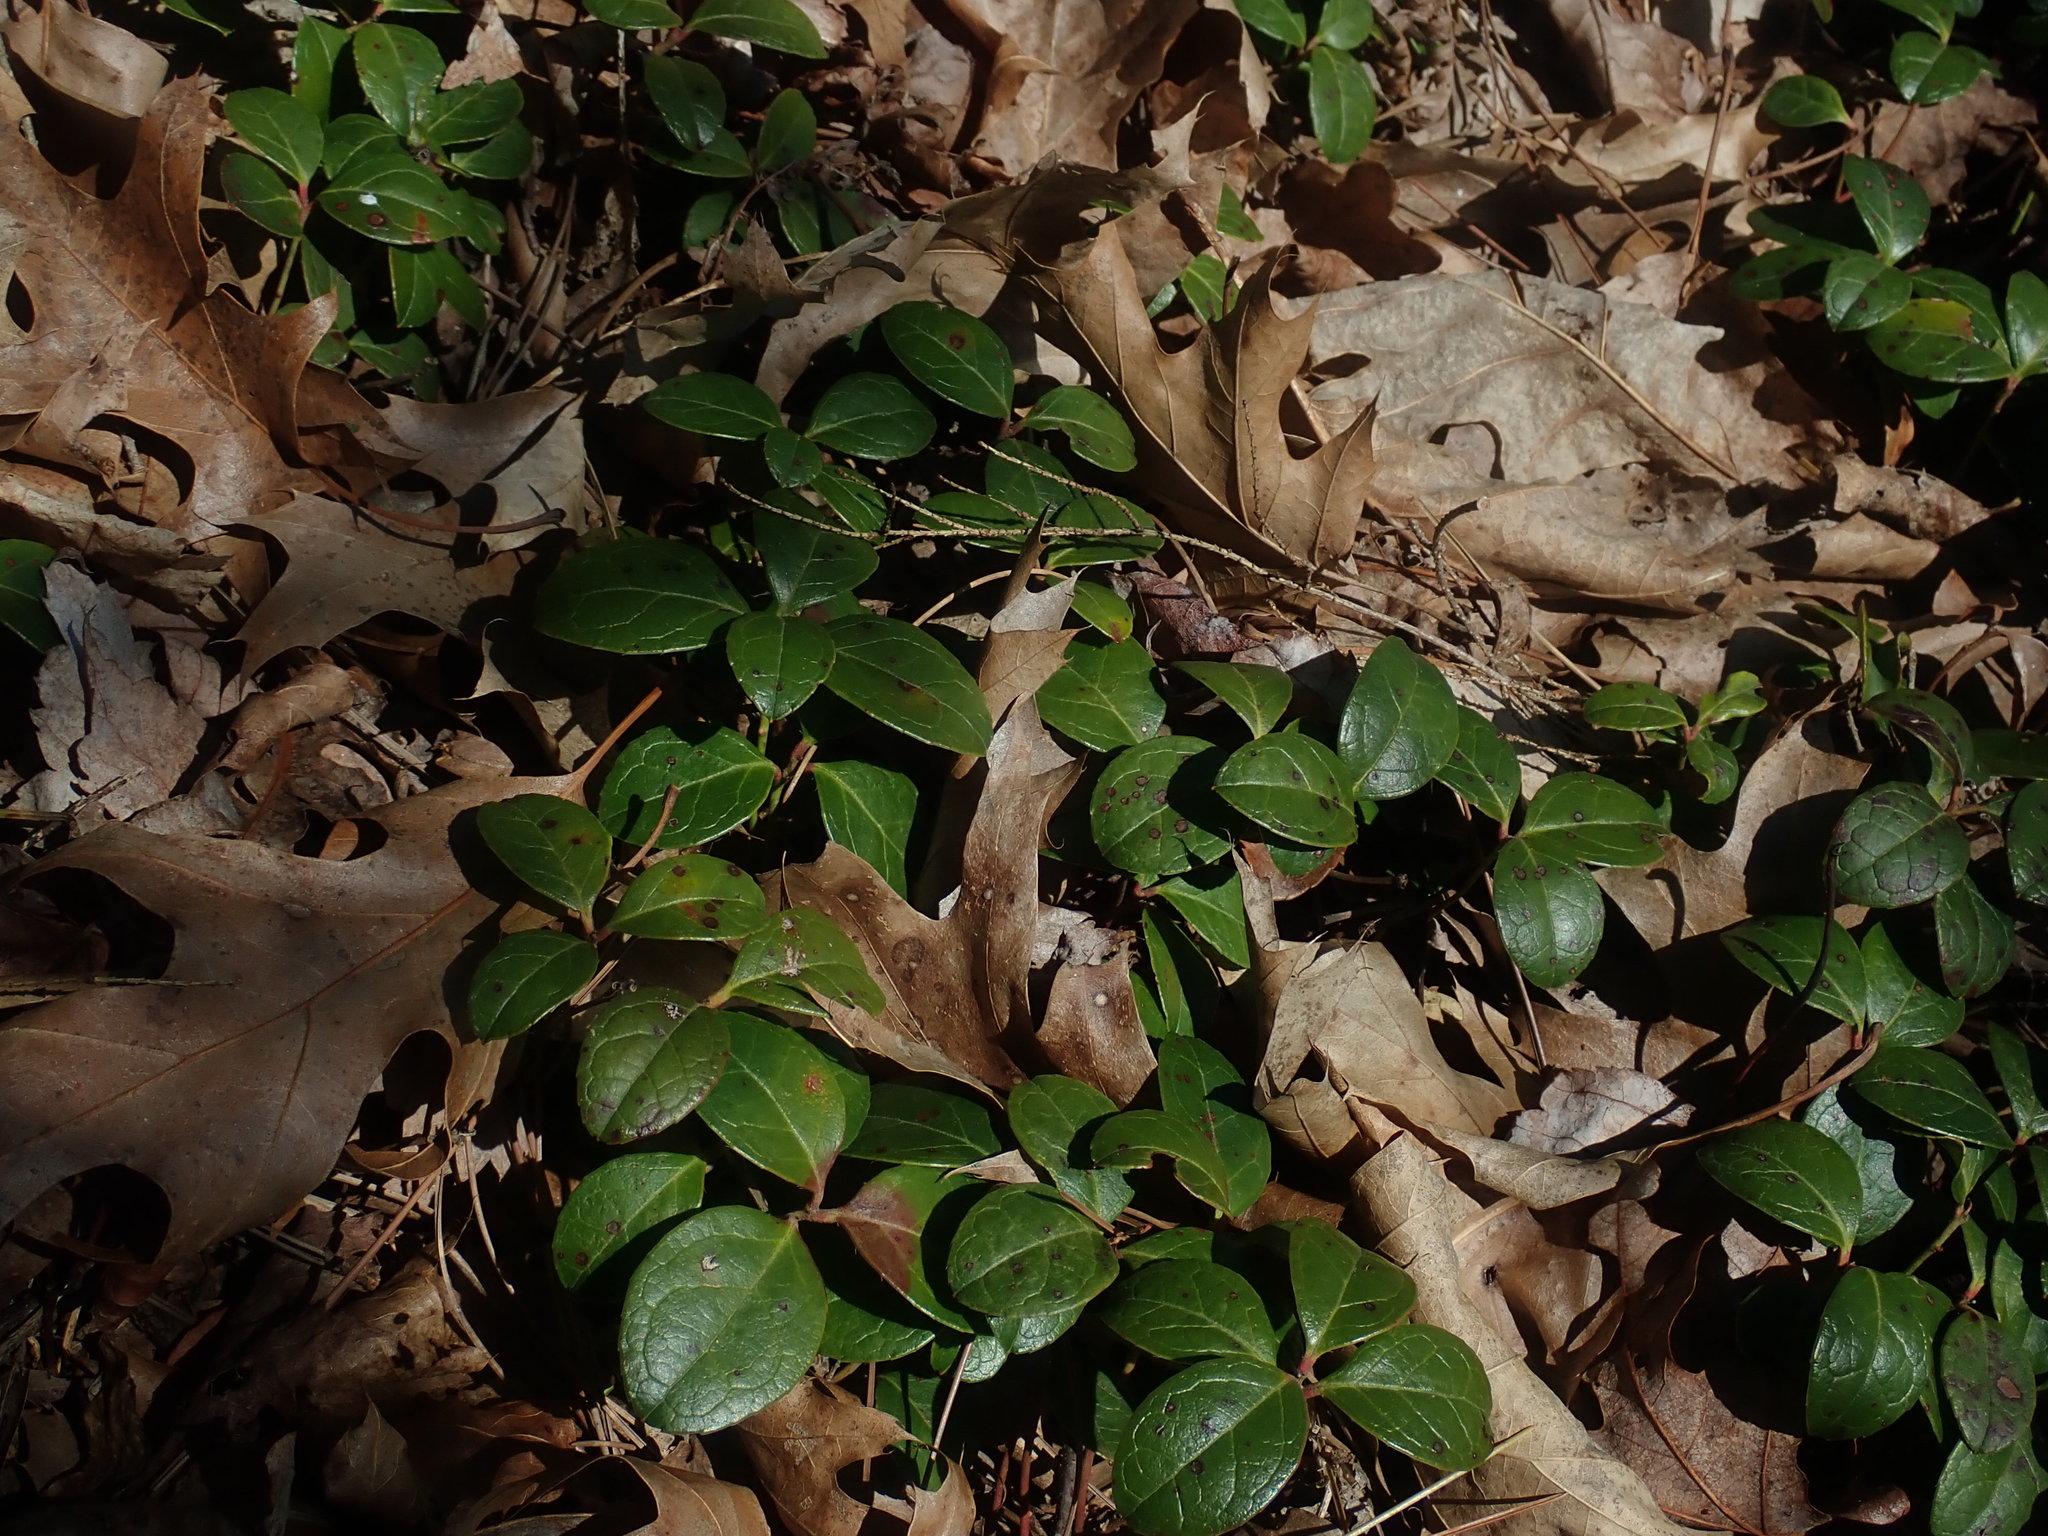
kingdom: Plantae
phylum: Tracheophyta
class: Magnoliopsida
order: Ericales
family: Ericaceae
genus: Gaultheria
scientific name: Gaultheria procumbens
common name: Checkerberry
